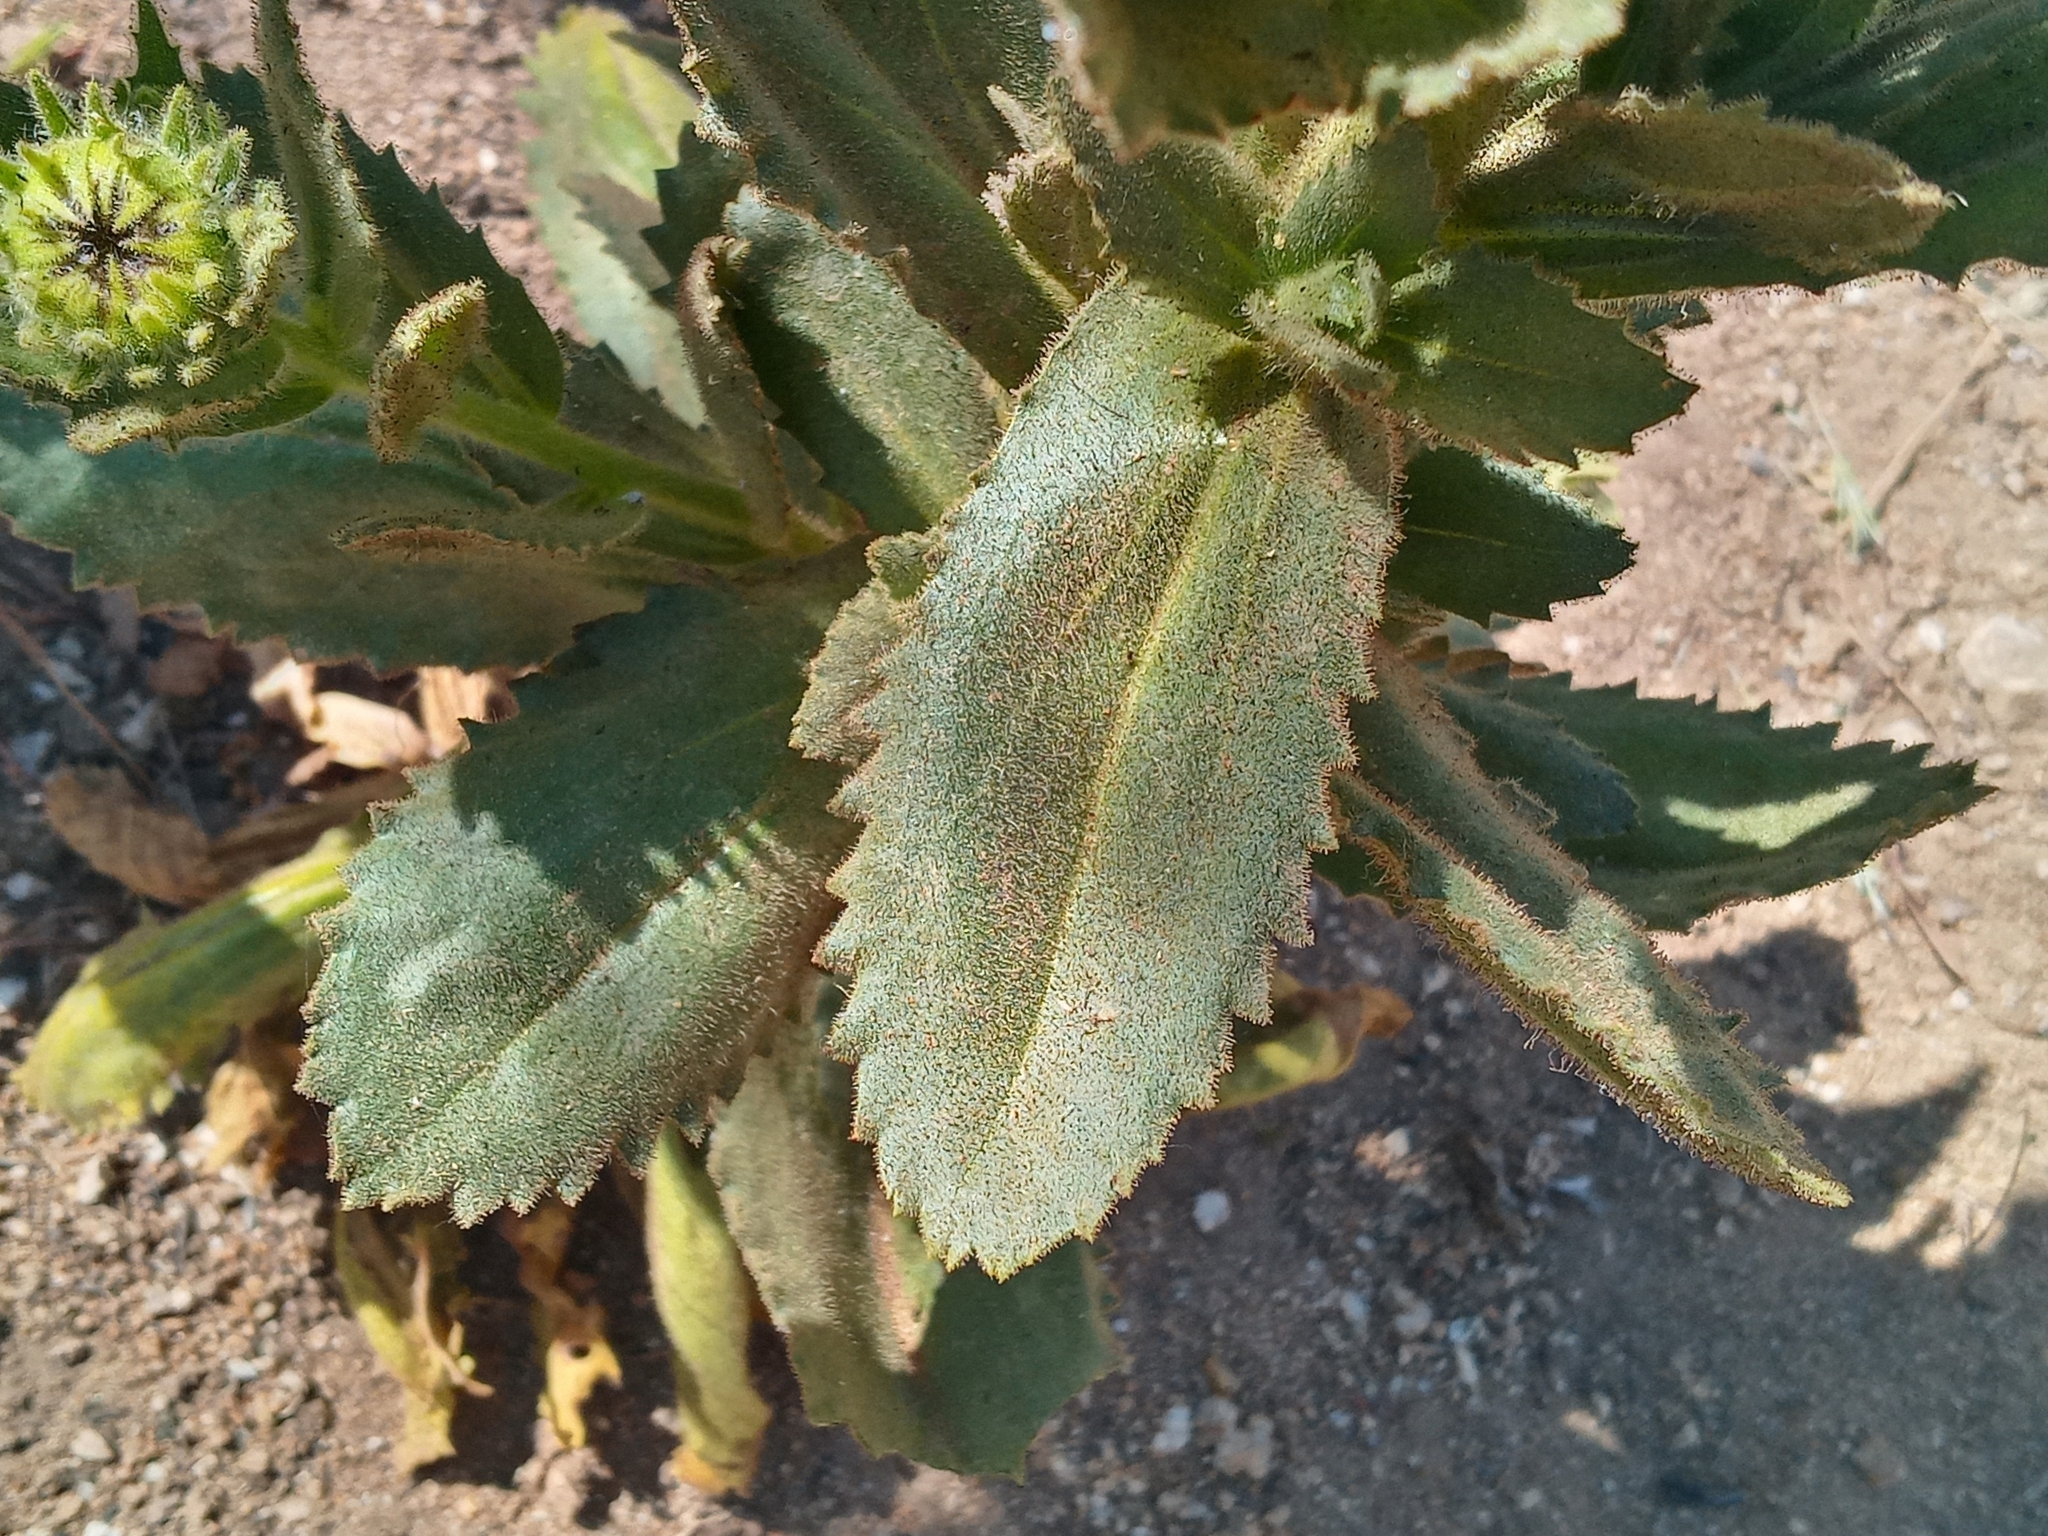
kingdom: Plantae
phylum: Tracheophyta
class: Magnoliopsida
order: Asterales
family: Asteraceae
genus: Hulsea
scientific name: Hulsea heterochroma
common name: Redray alpinegold
